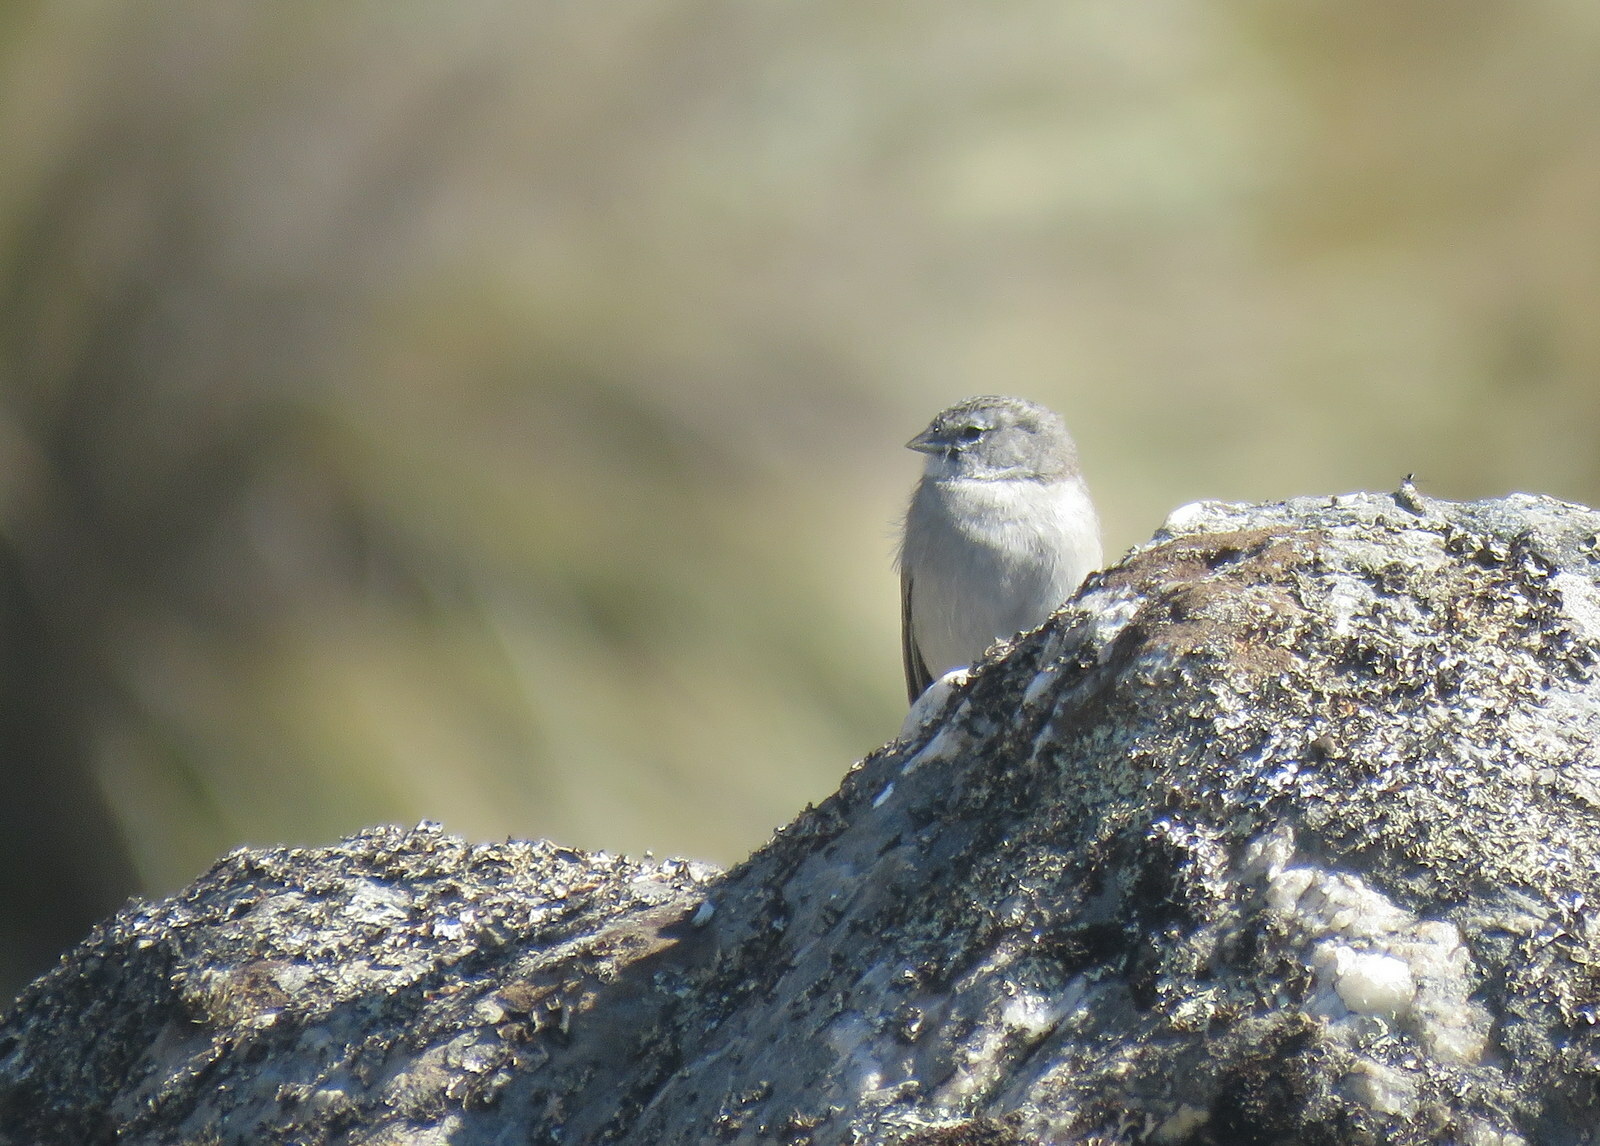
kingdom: Animalia
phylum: Chordata
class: Aves
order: Passeriformes
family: Thraupidae
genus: Geospizopsis
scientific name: Geospizopsis plebejus
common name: Ash-breasted sierra-finch
